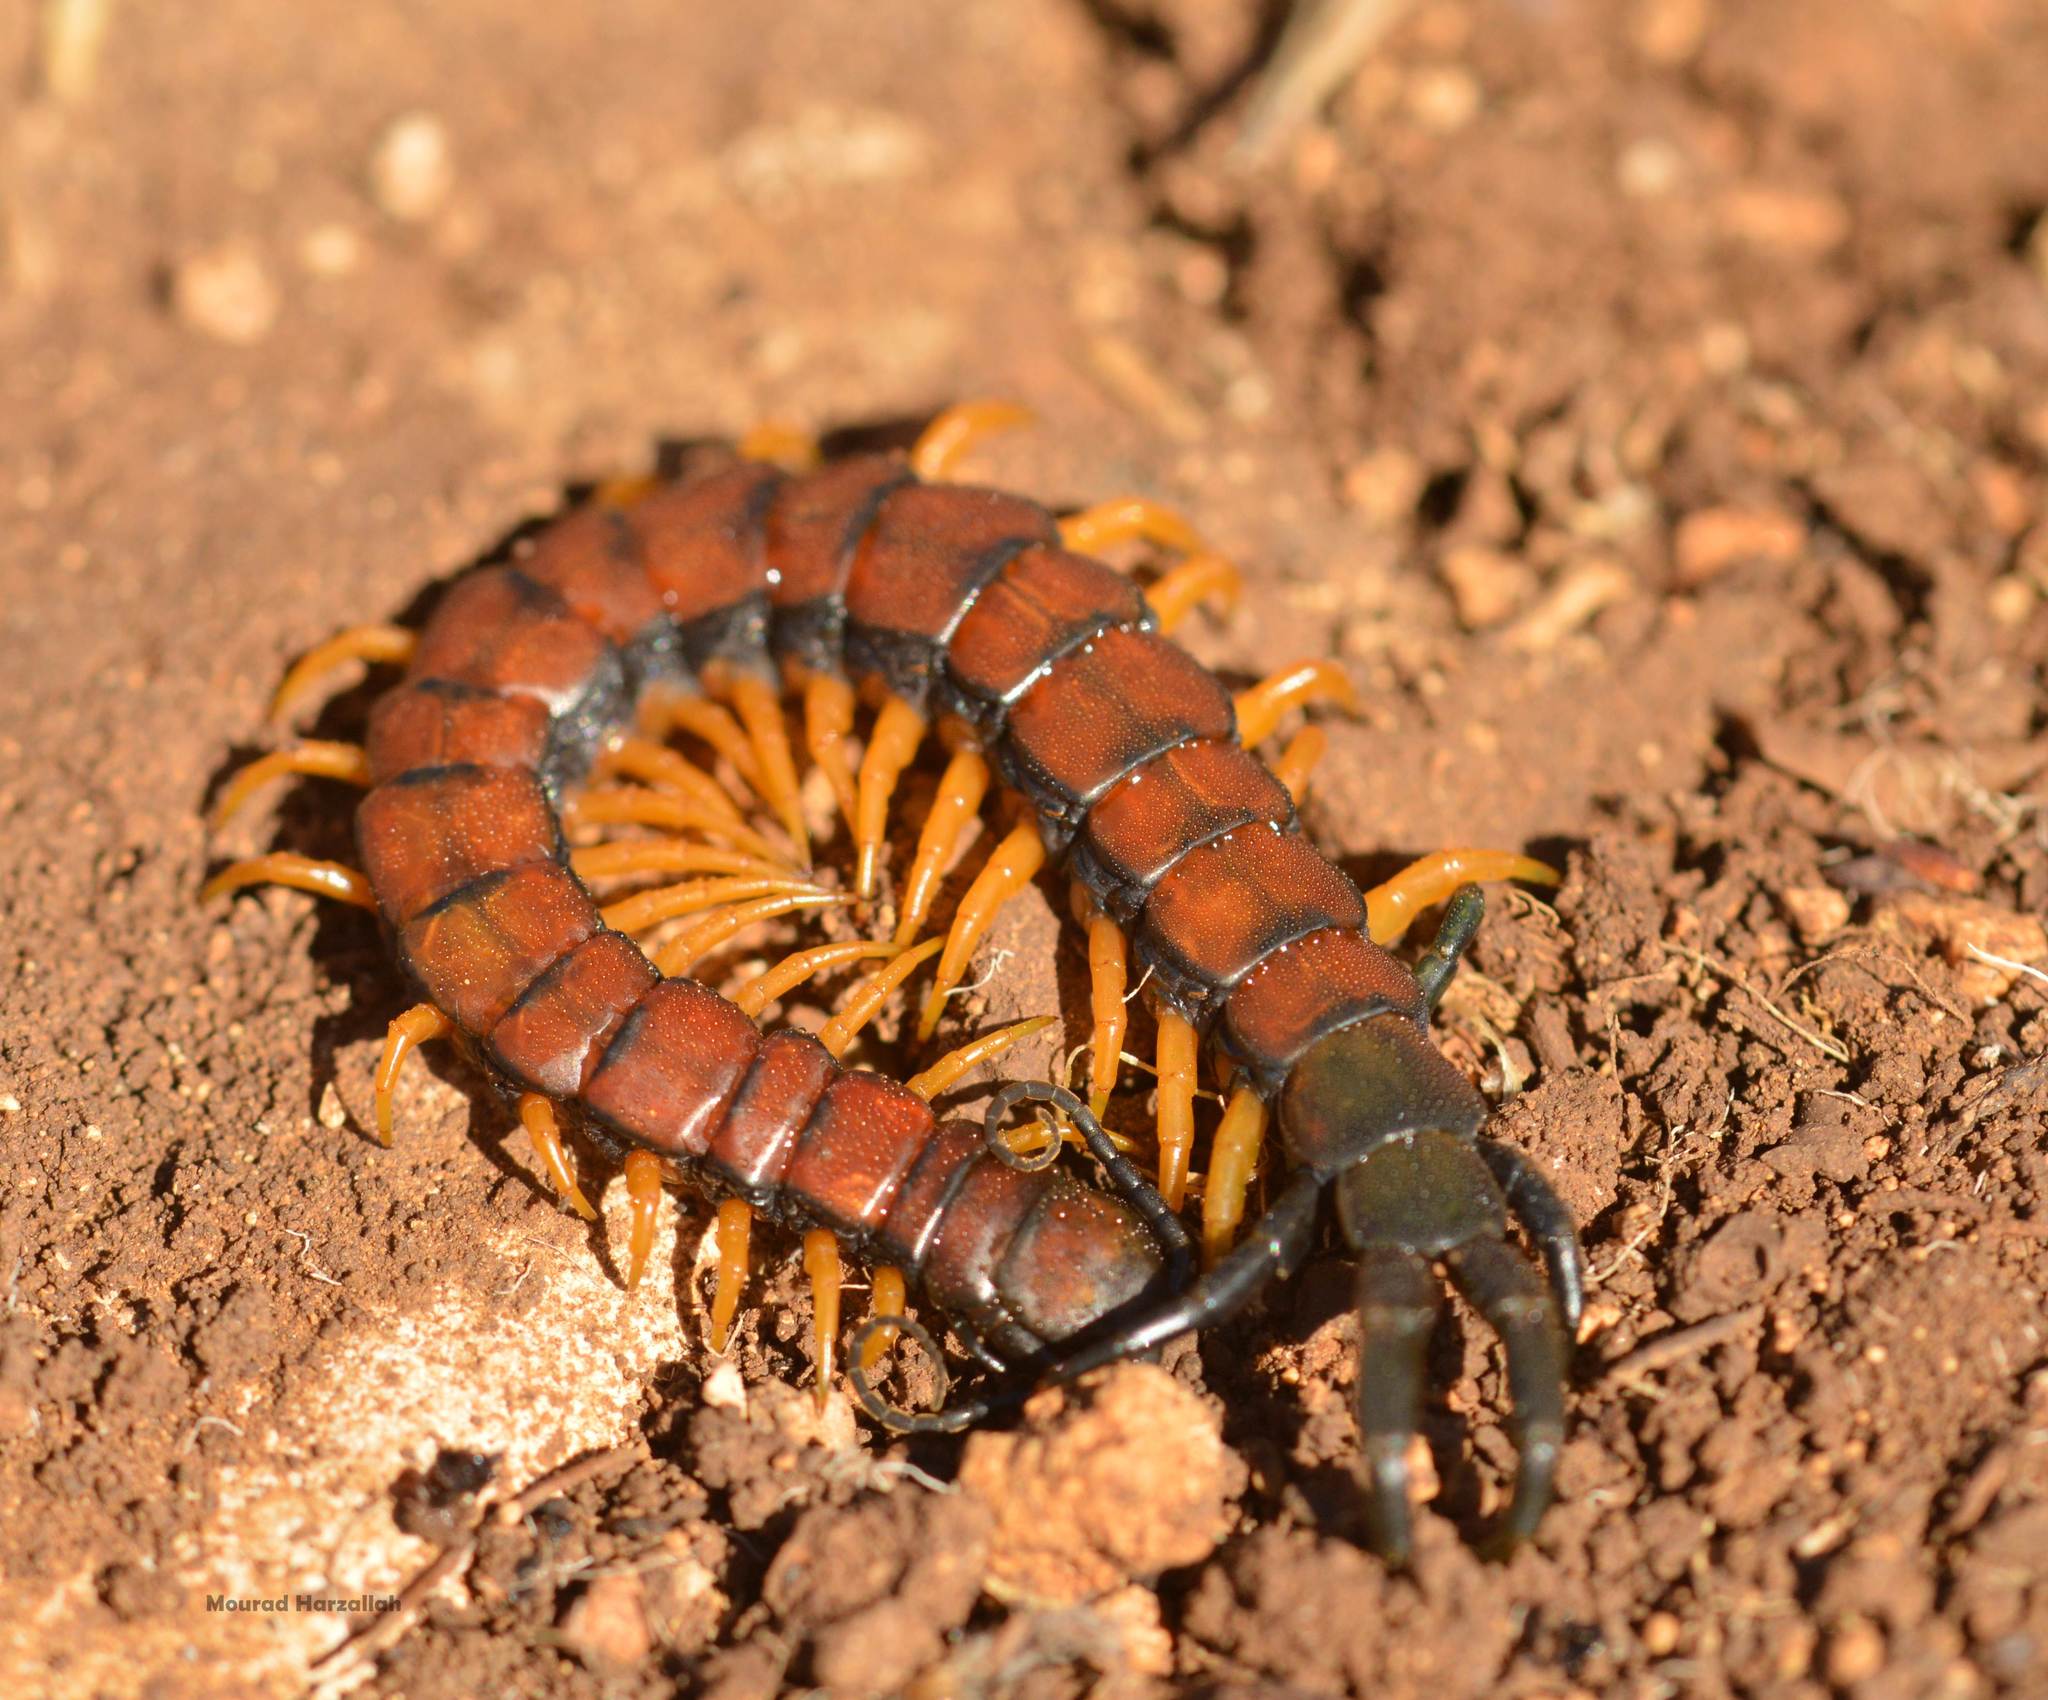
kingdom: Animalia
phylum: Arthropoda
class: Chilopoda
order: Scolopendromorpha
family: Scolopendridae
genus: Scolopendra
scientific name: Scolopendra cingulata
